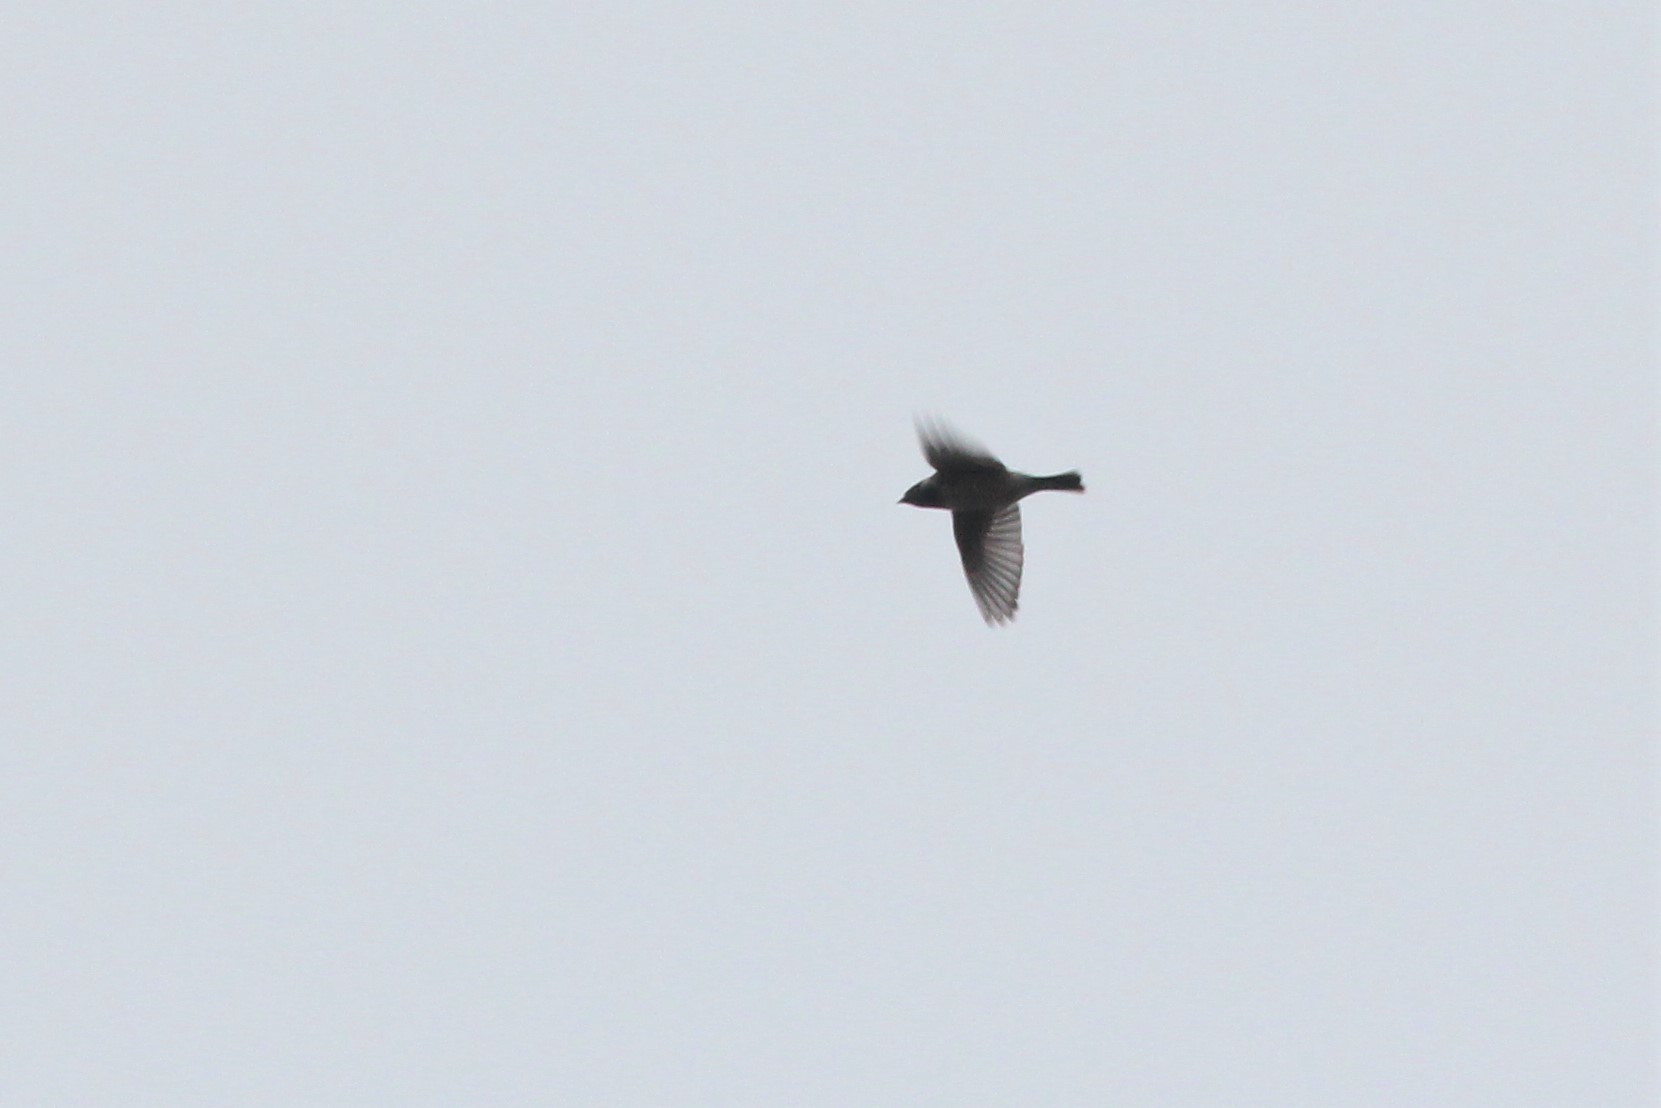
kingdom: Animalia
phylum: Chordata
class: Aves
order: Passeriformes
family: Calcariidae
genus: Calcarius
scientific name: Calcarius lapponicus
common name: Lapland longspur
